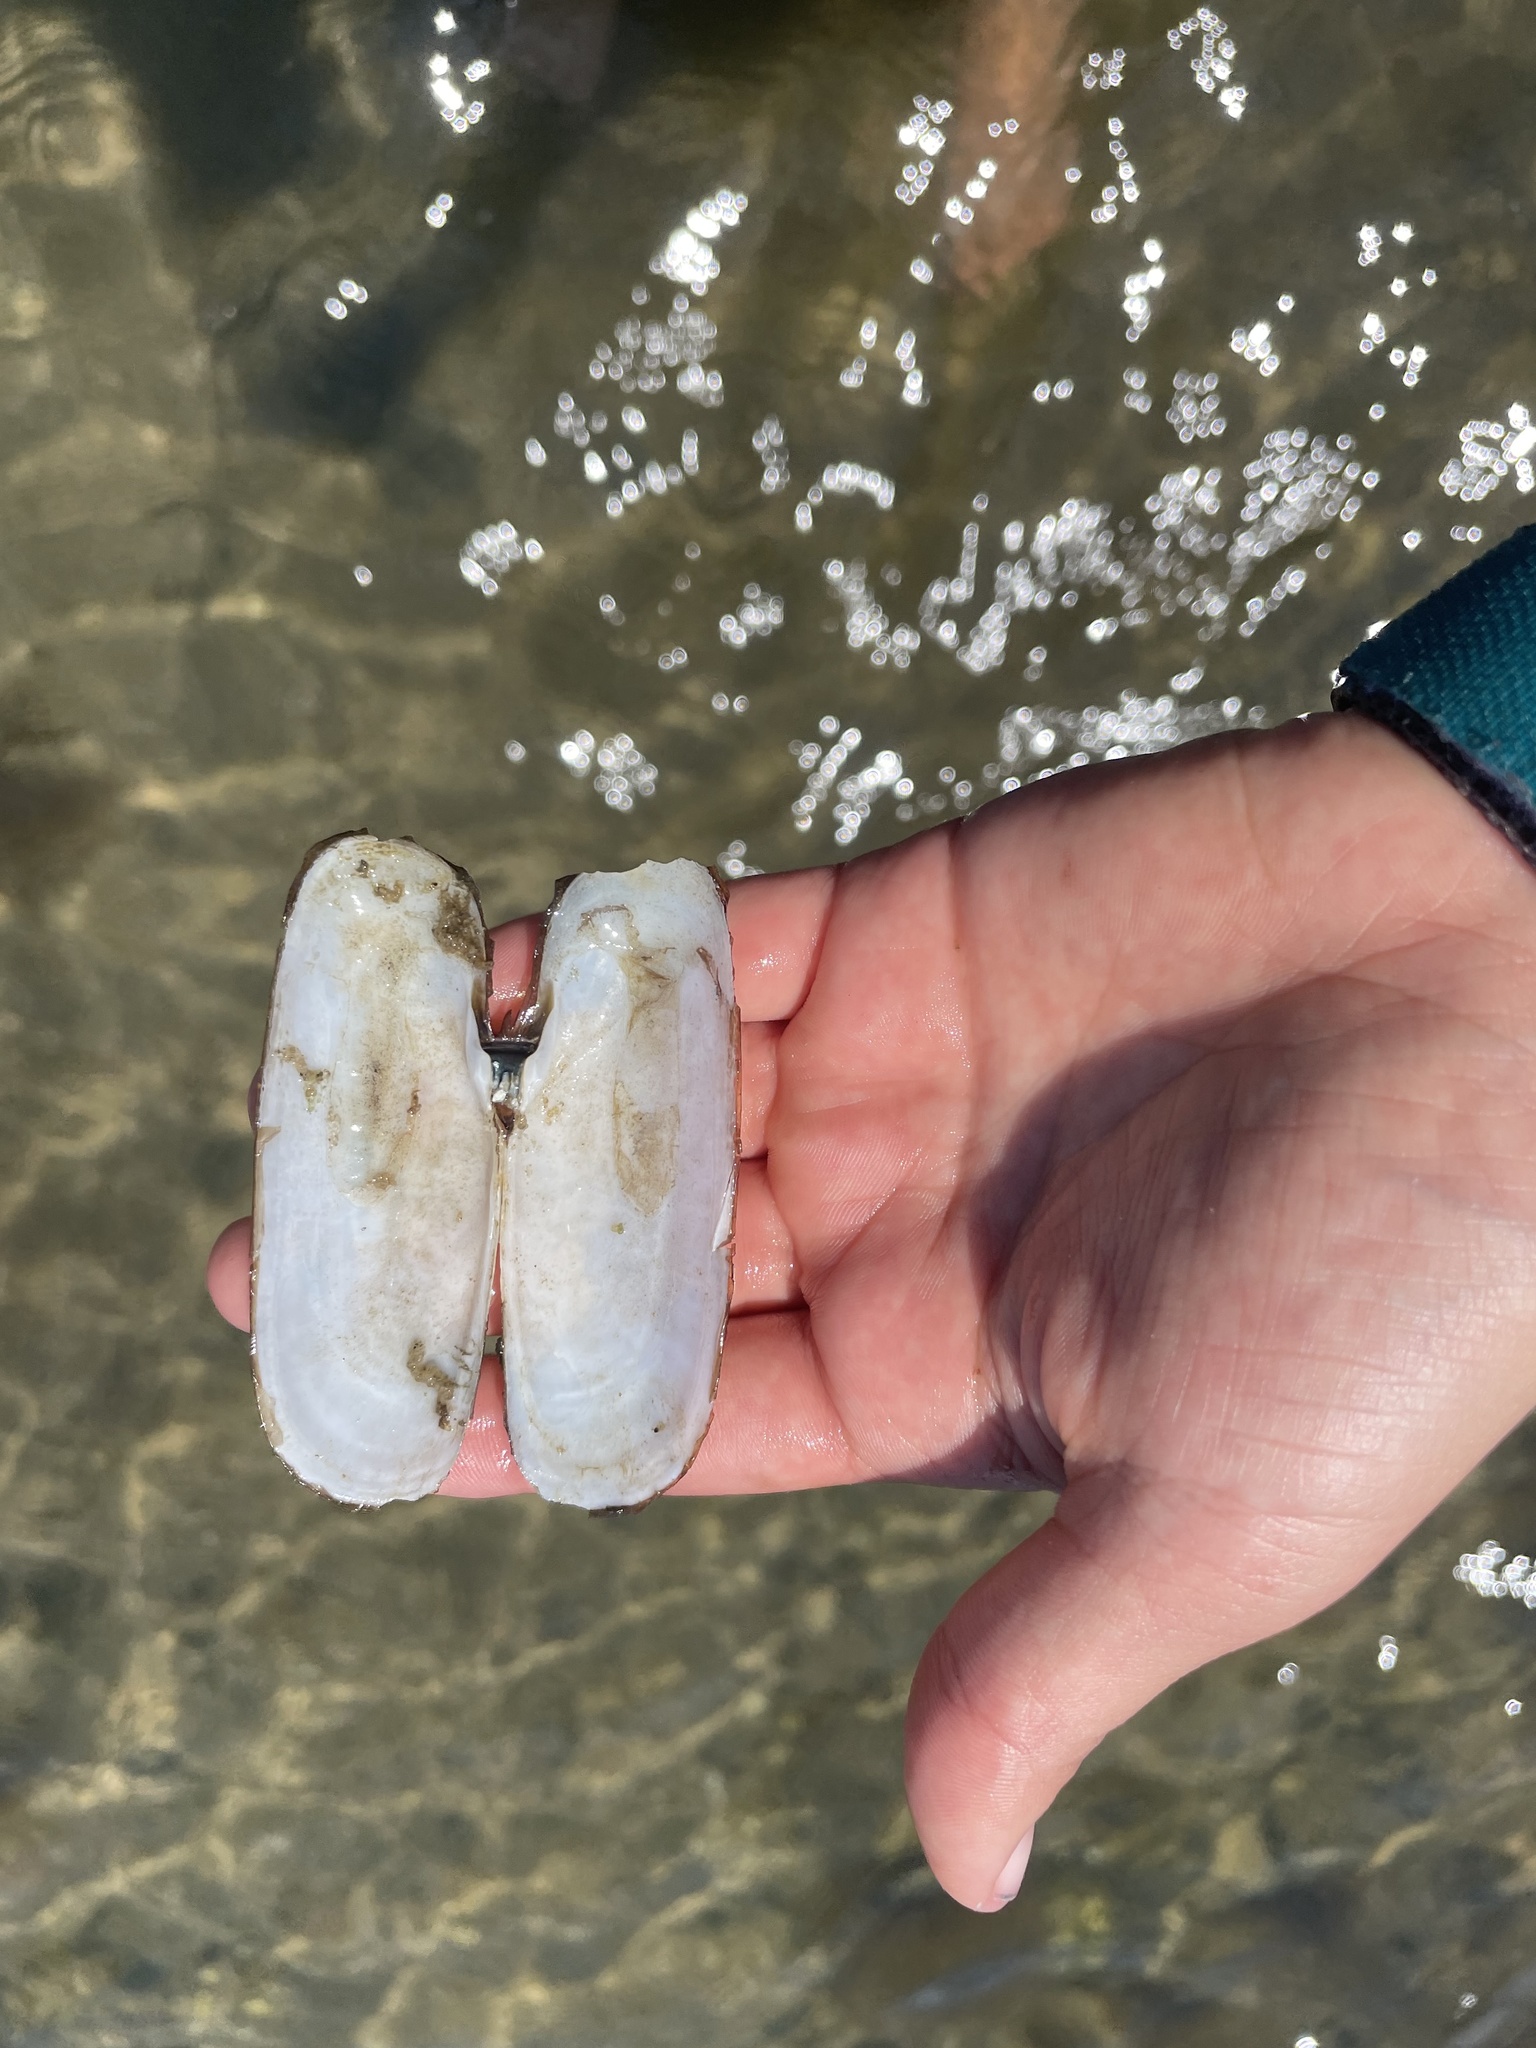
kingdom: Animalia
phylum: Mollusca
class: Bivalvia
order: Cardiida
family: Solecurtidae
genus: Tagelus
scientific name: Tagelus plebeius
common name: Stout tagelus
